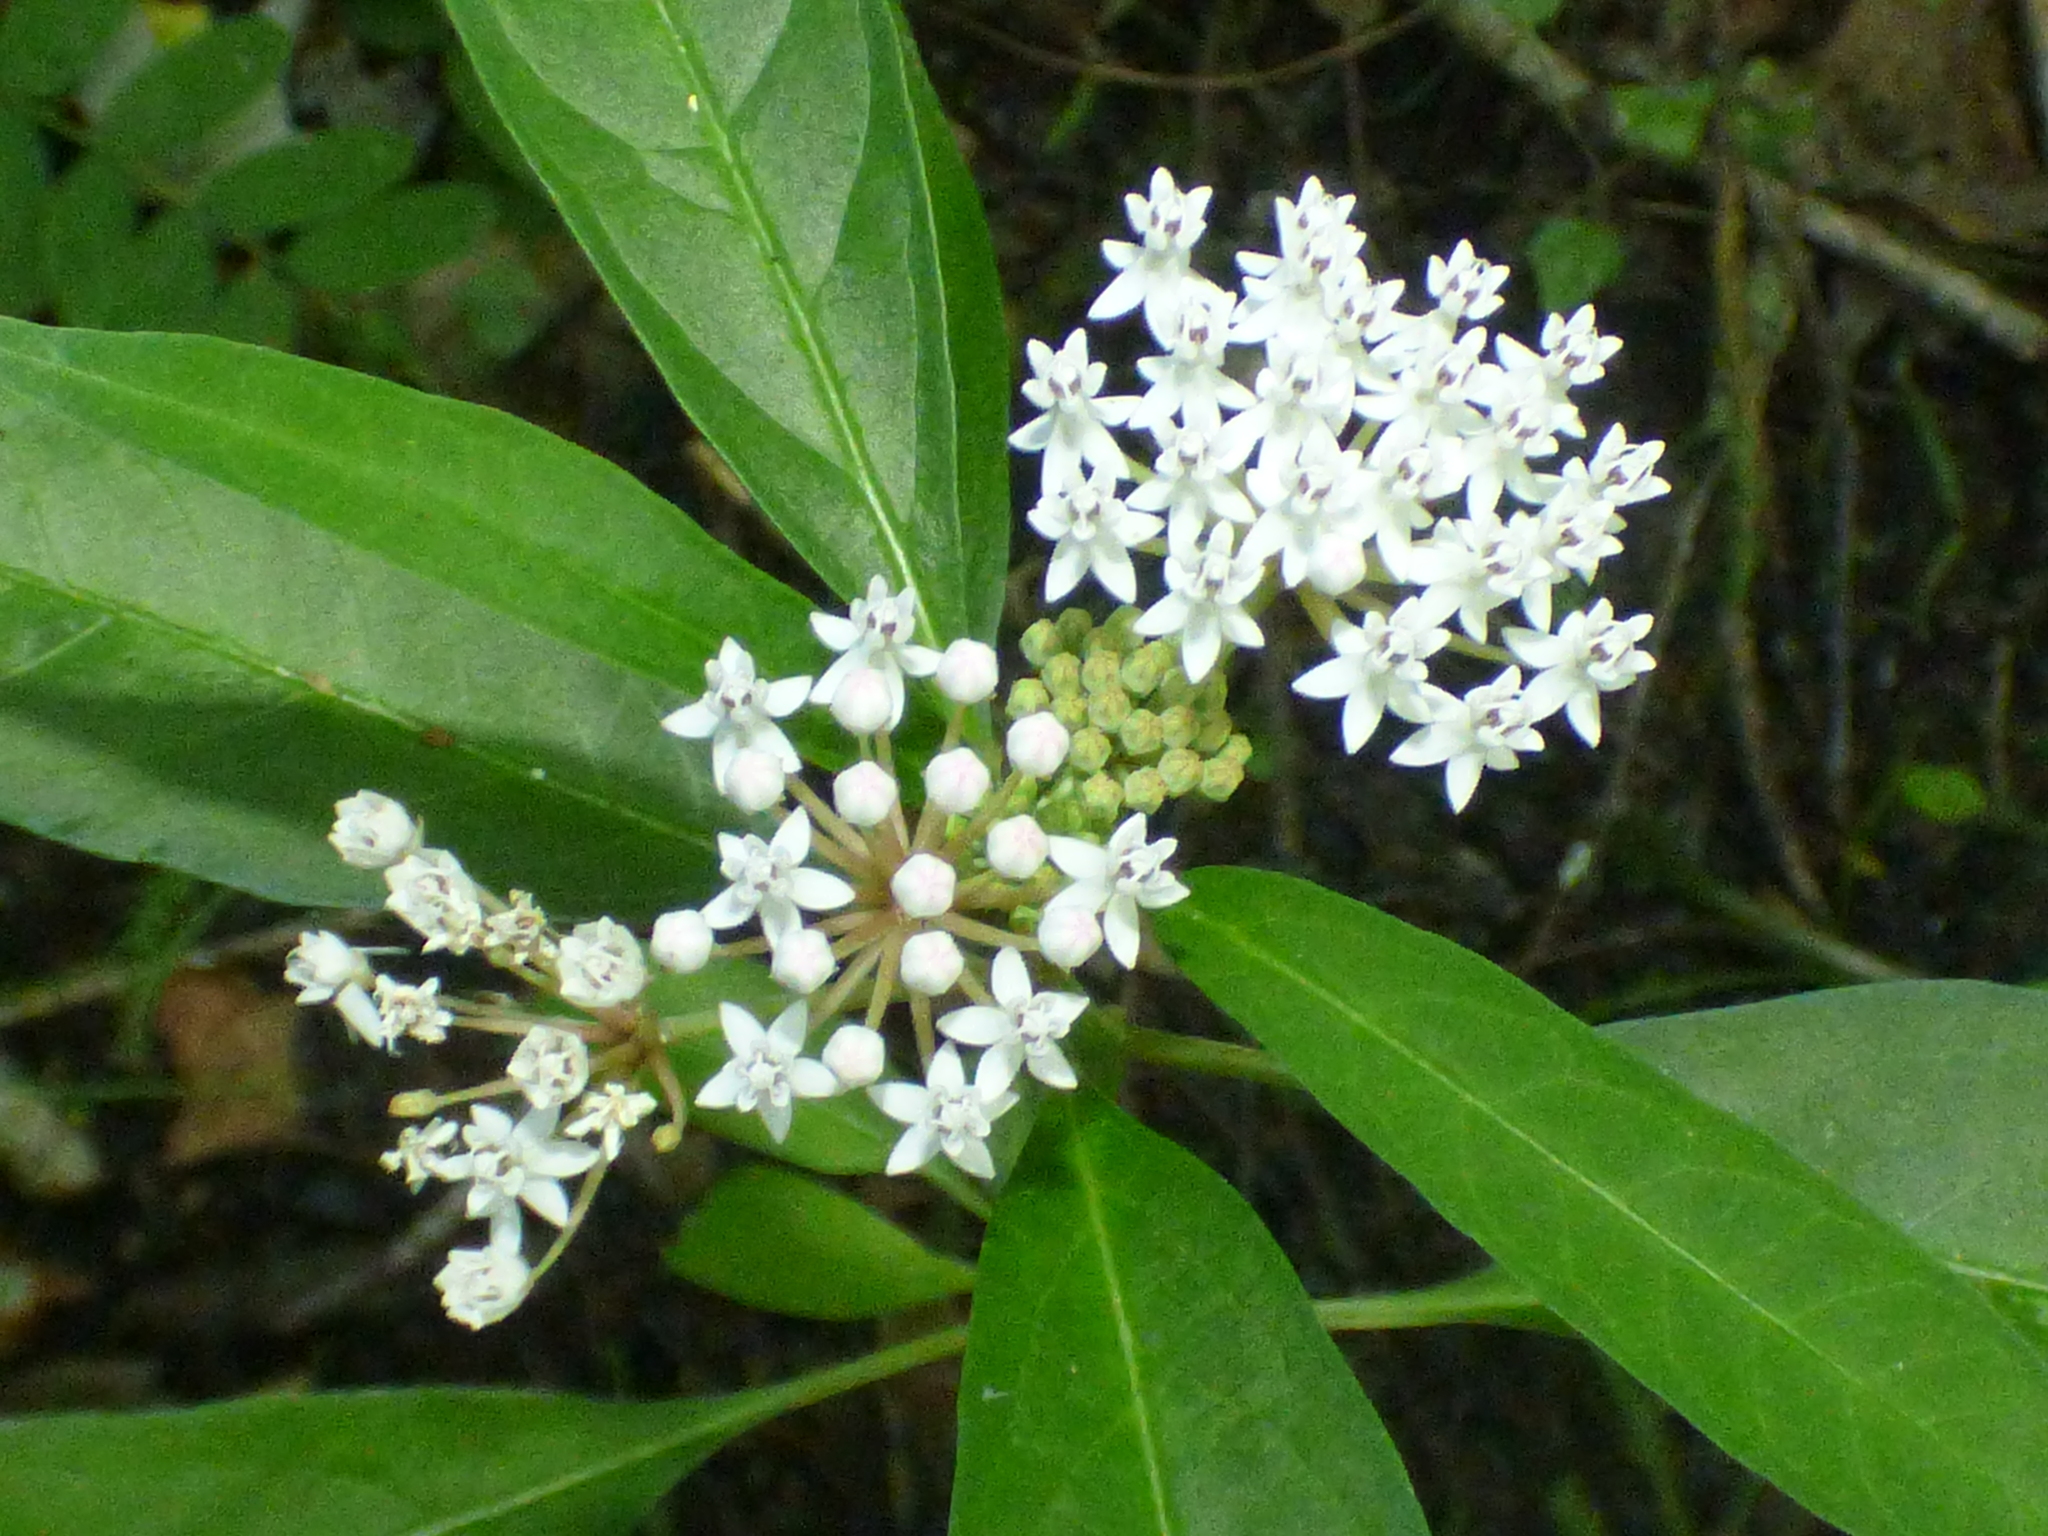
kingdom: Plantae
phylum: Tracheophyta
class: Magnoliopsida
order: Gentianales
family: Apocynaceae
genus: Asclepias
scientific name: Asclepias perennis
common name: Smooth-seed milkweed
